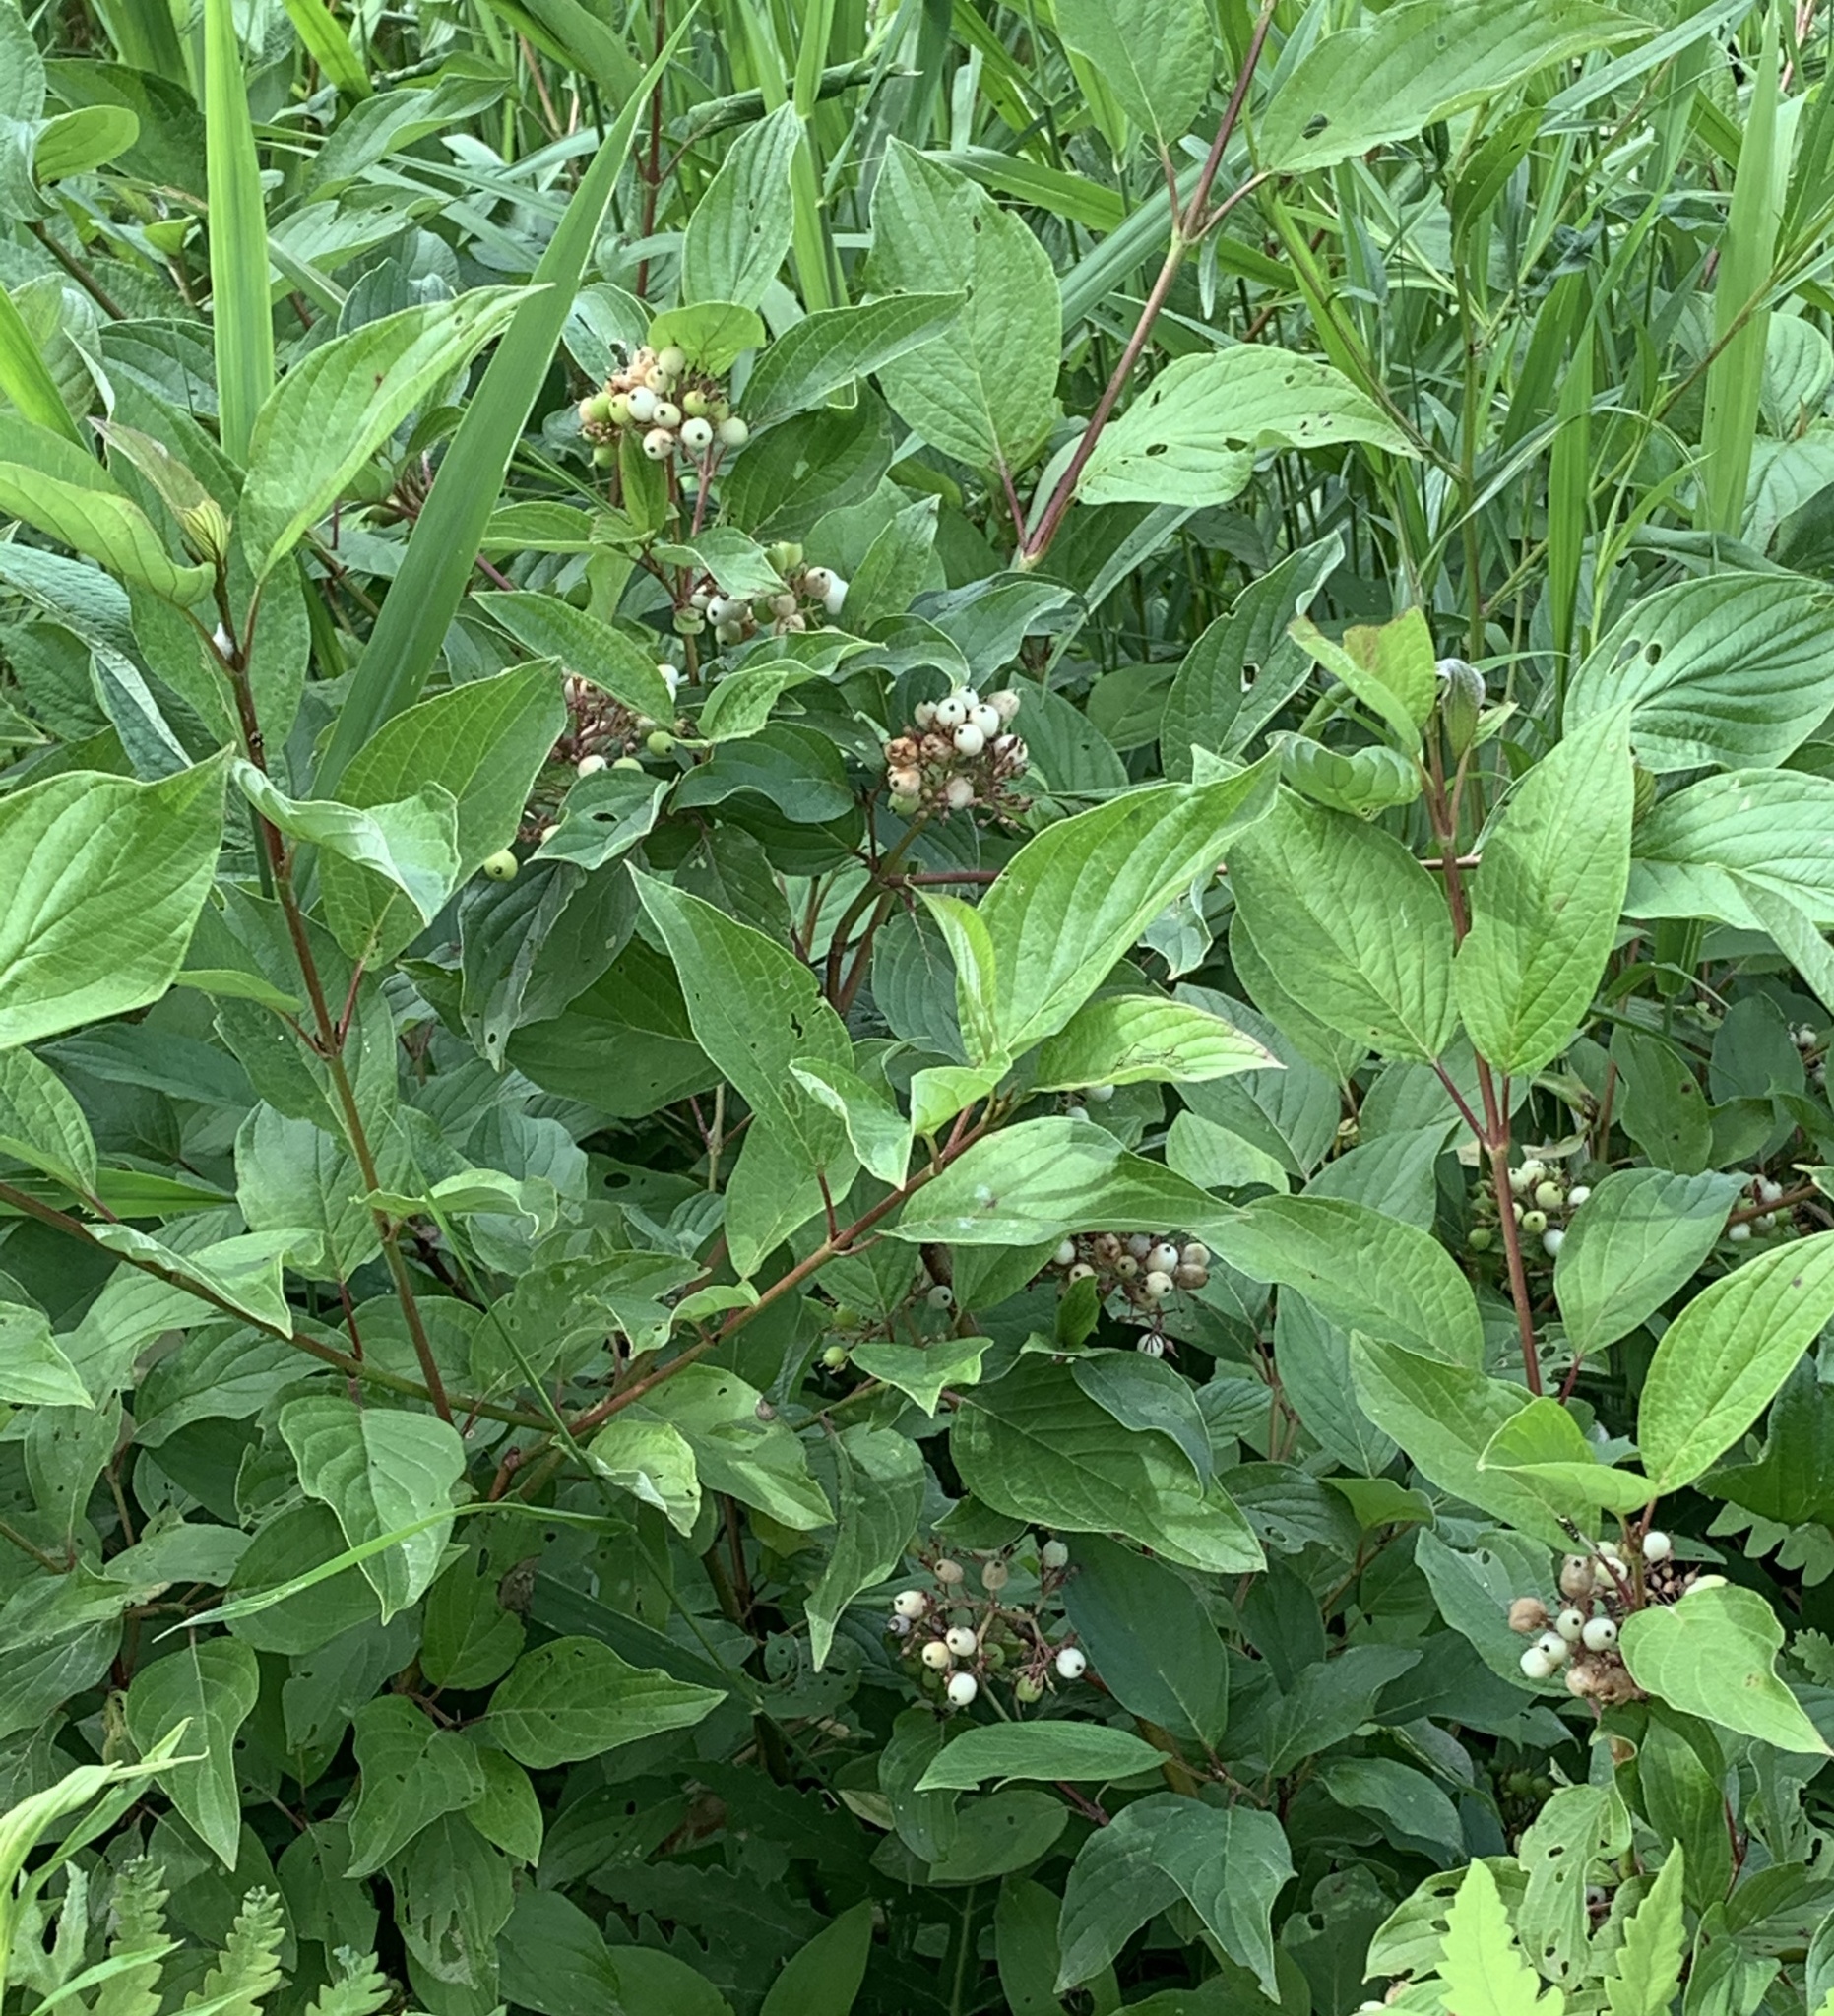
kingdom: Plantae
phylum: Tracheophyta
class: Magnoliopsida
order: Cornales
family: Cornaceae
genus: Cornus
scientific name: Cornus sericea
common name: Red-osier dogwood
